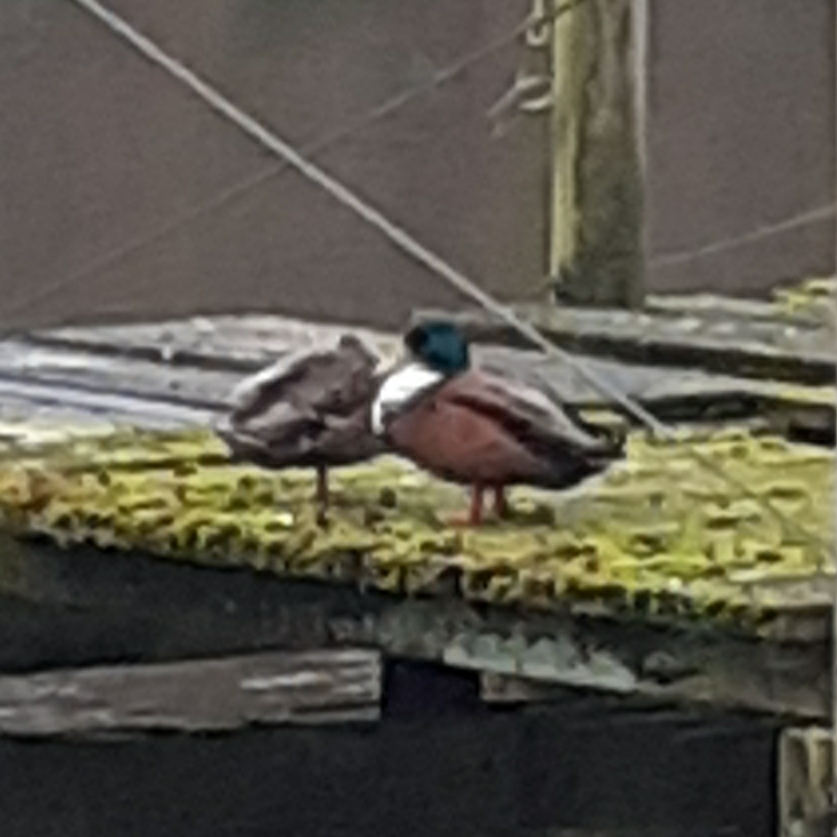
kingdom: Animalia
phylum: Chordata
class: Aves
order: Anseriformes
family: Anatidae
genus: Anas
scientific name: Anas platyrhynchos
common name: Mallard
